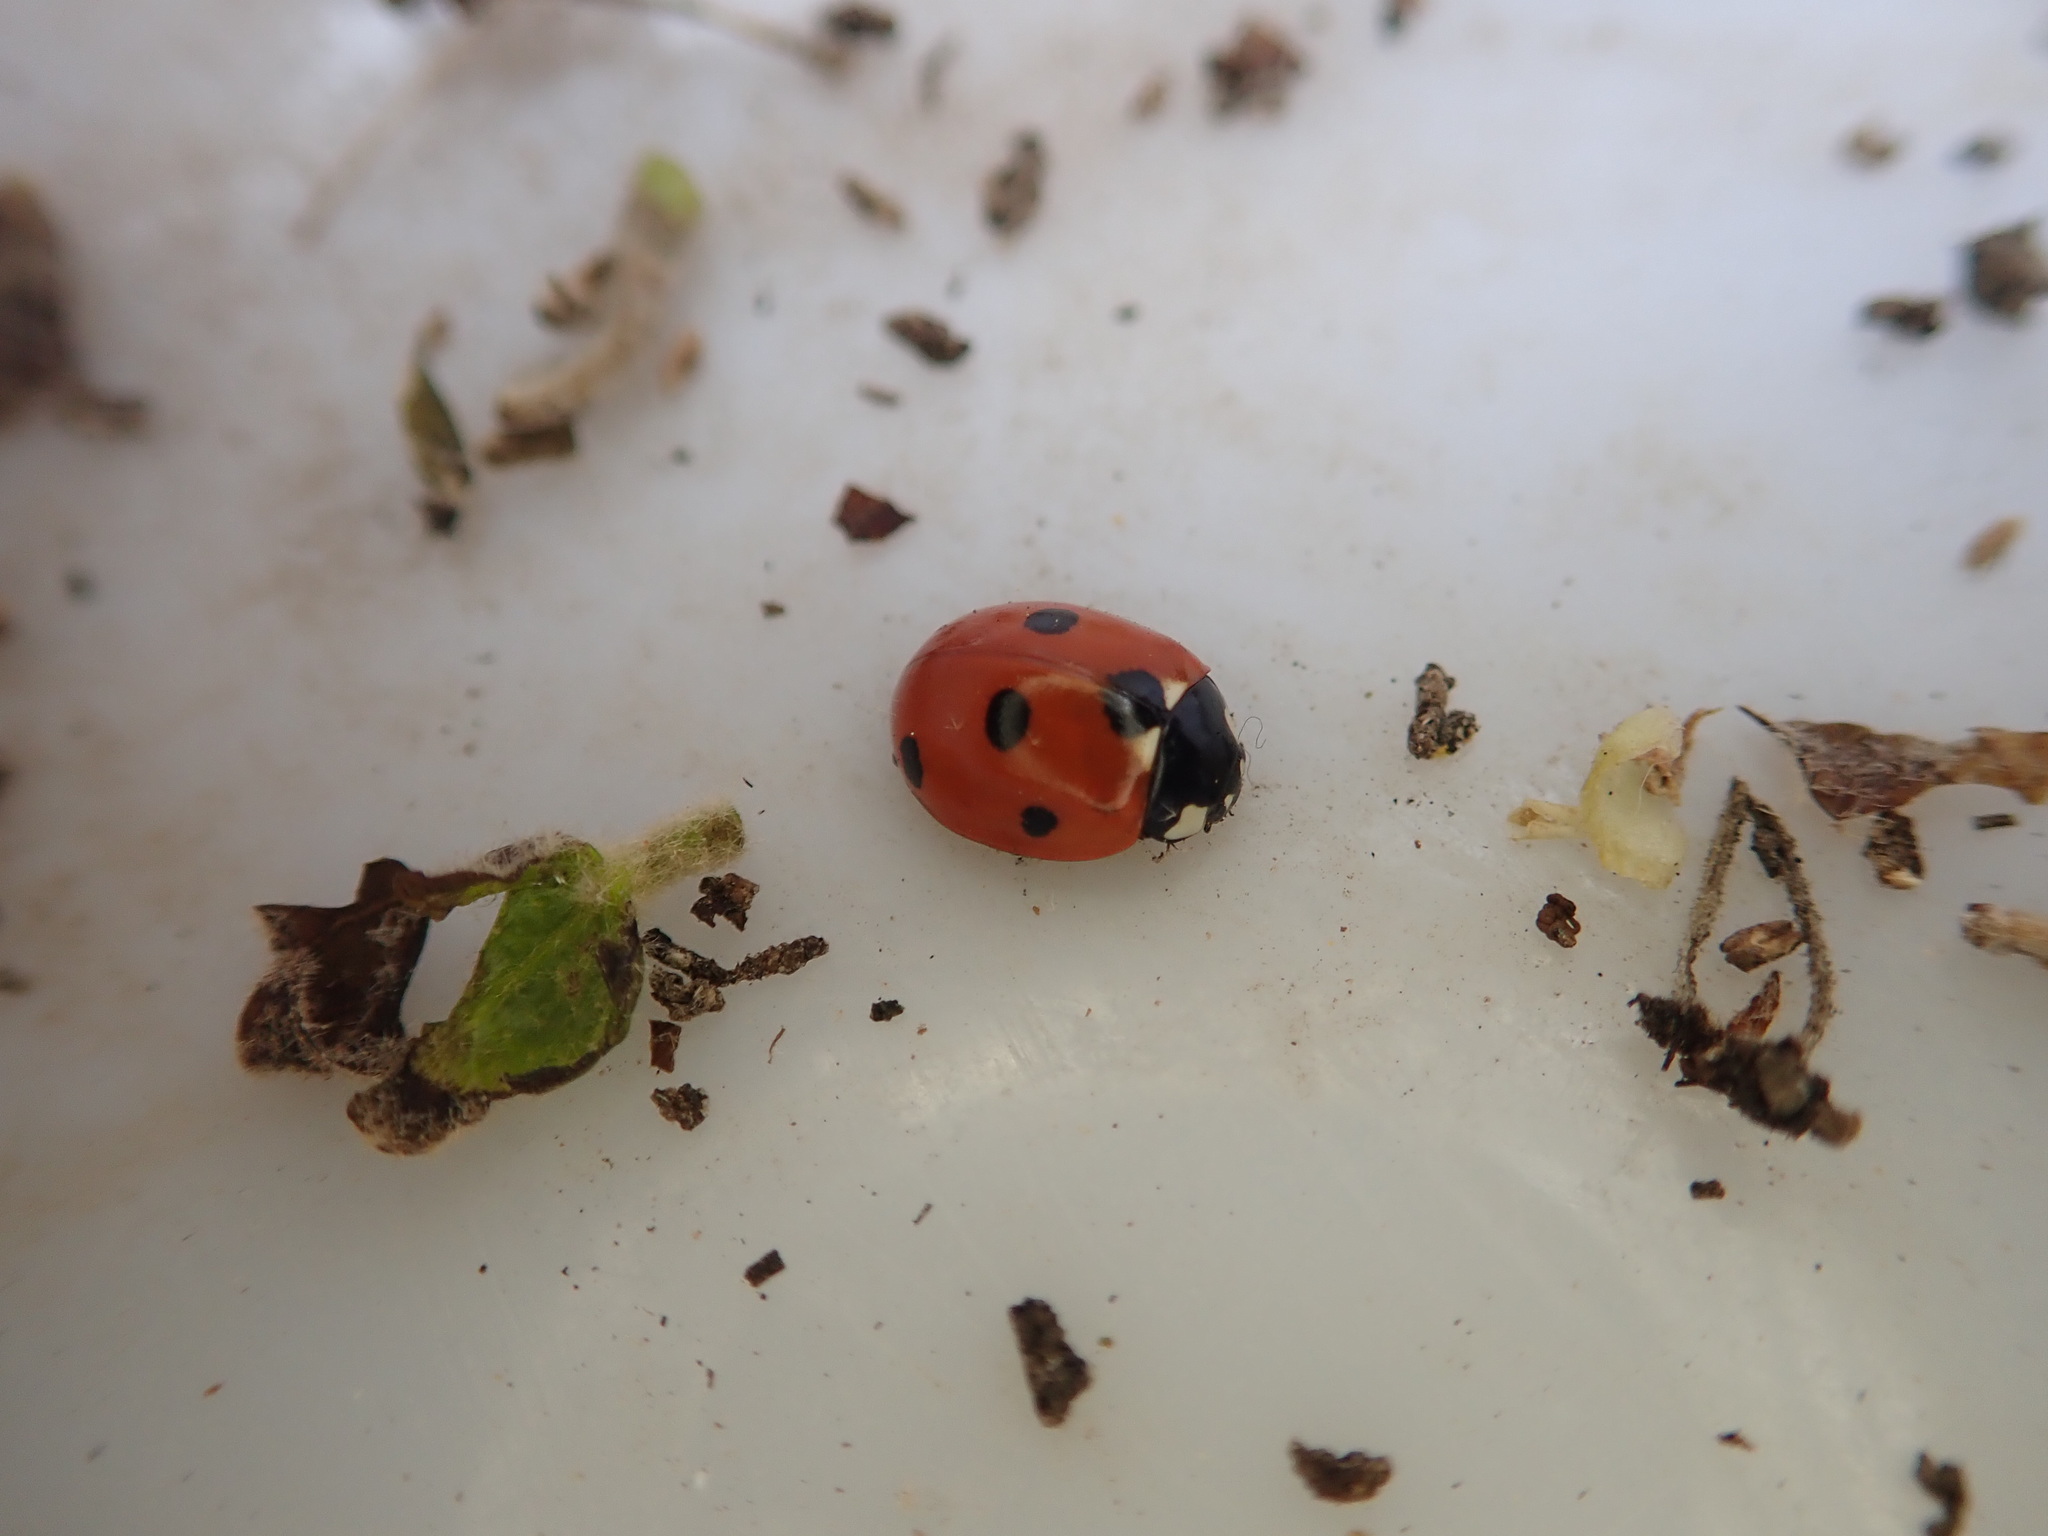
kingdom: Animalia
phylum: Arthropoda
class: Insecta
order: Coleoptera
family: Coccinellidae
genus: Coccinella
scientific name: Coccinella septempunctata
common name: Sevenspotted lady beetle
